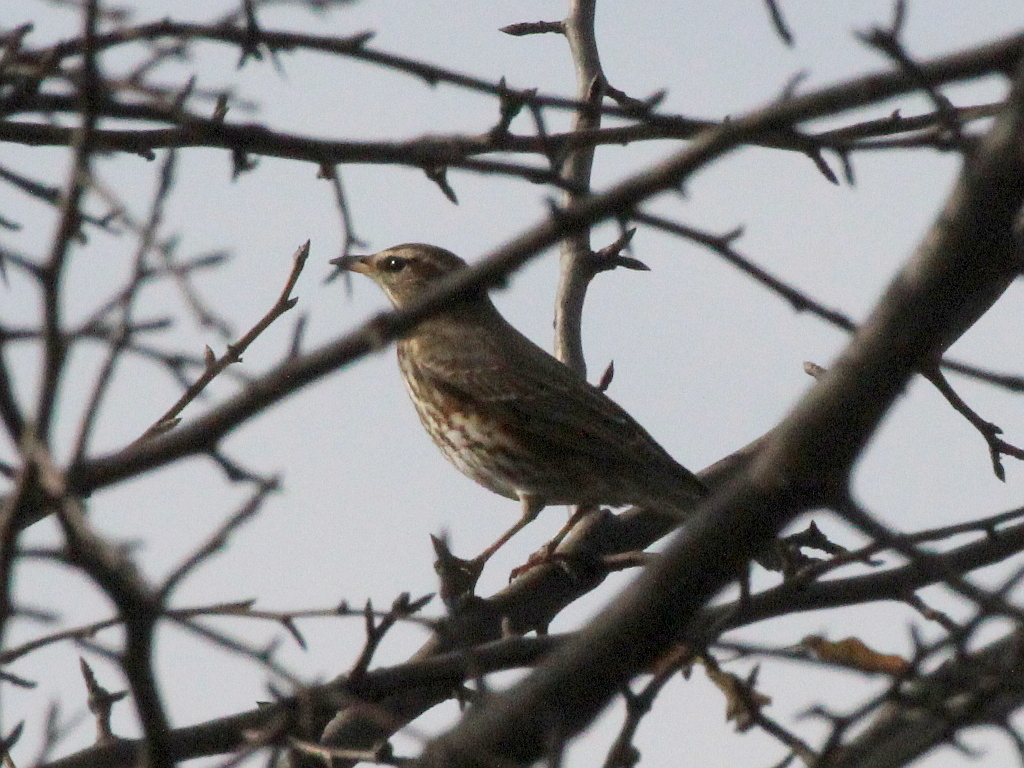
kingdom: Animalia
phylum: Chordata
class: Aves
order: Passeriformes
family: Turdidae
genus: Turdus
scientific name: Turdus iliacus
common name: Redwing
